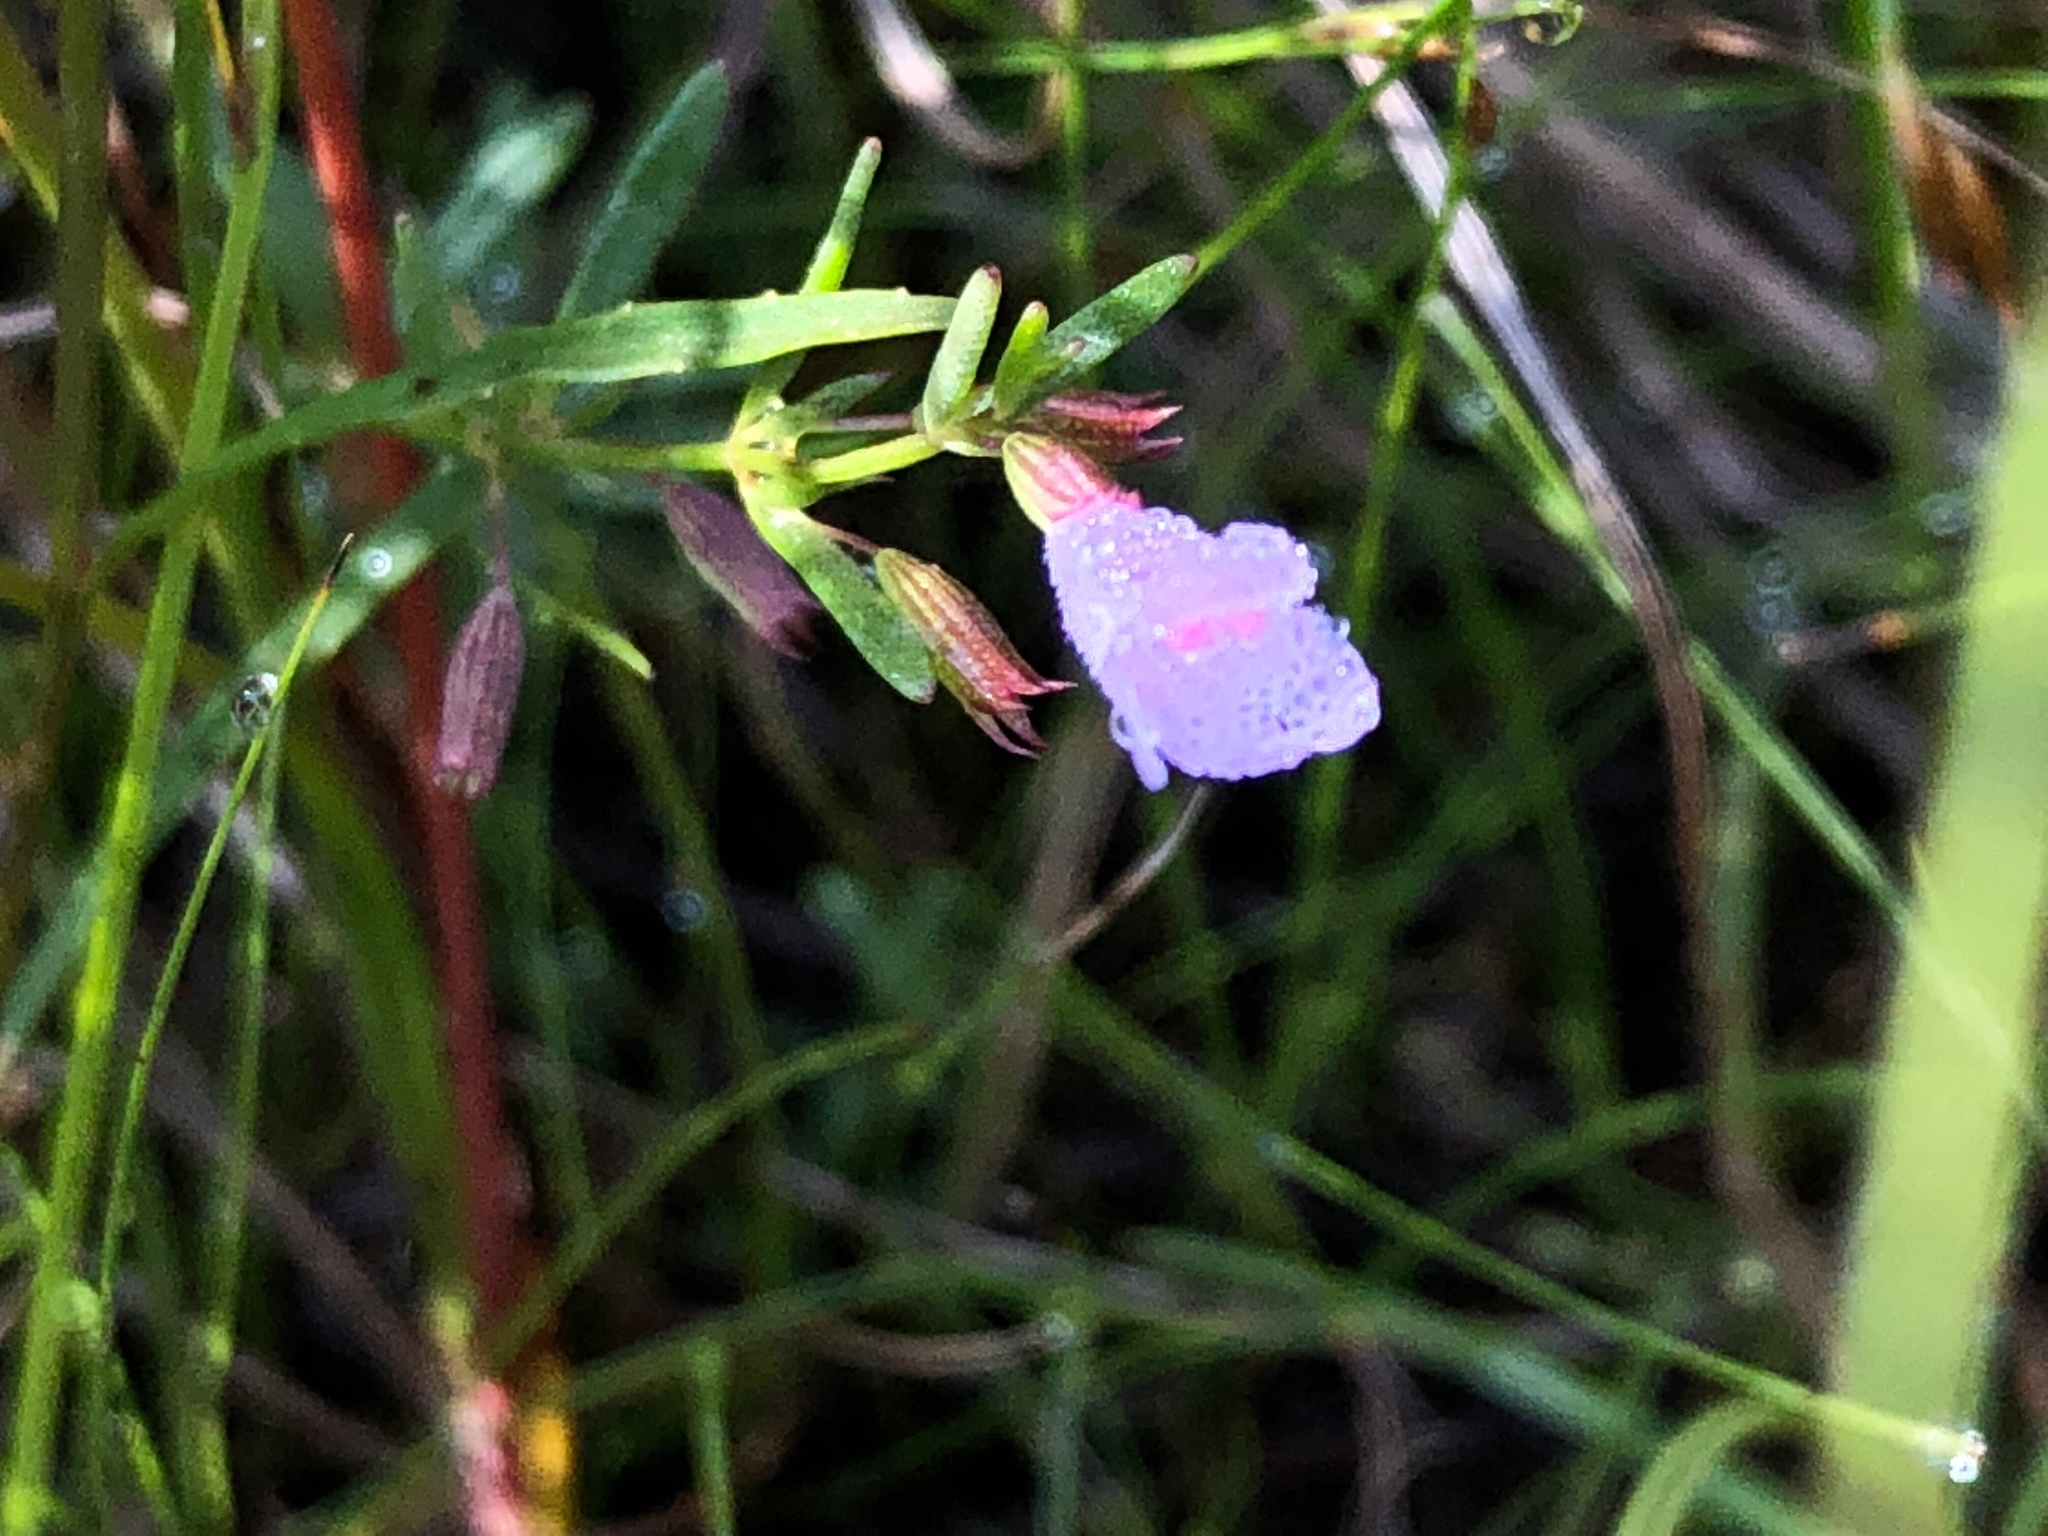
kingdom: Plantae
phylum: Tracheophyta
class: Magnoliopsida
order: Lamiales
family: Lamiaceae
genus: Clinopodium
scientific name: Clinopodium arkansanum
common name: Limestone calamint
